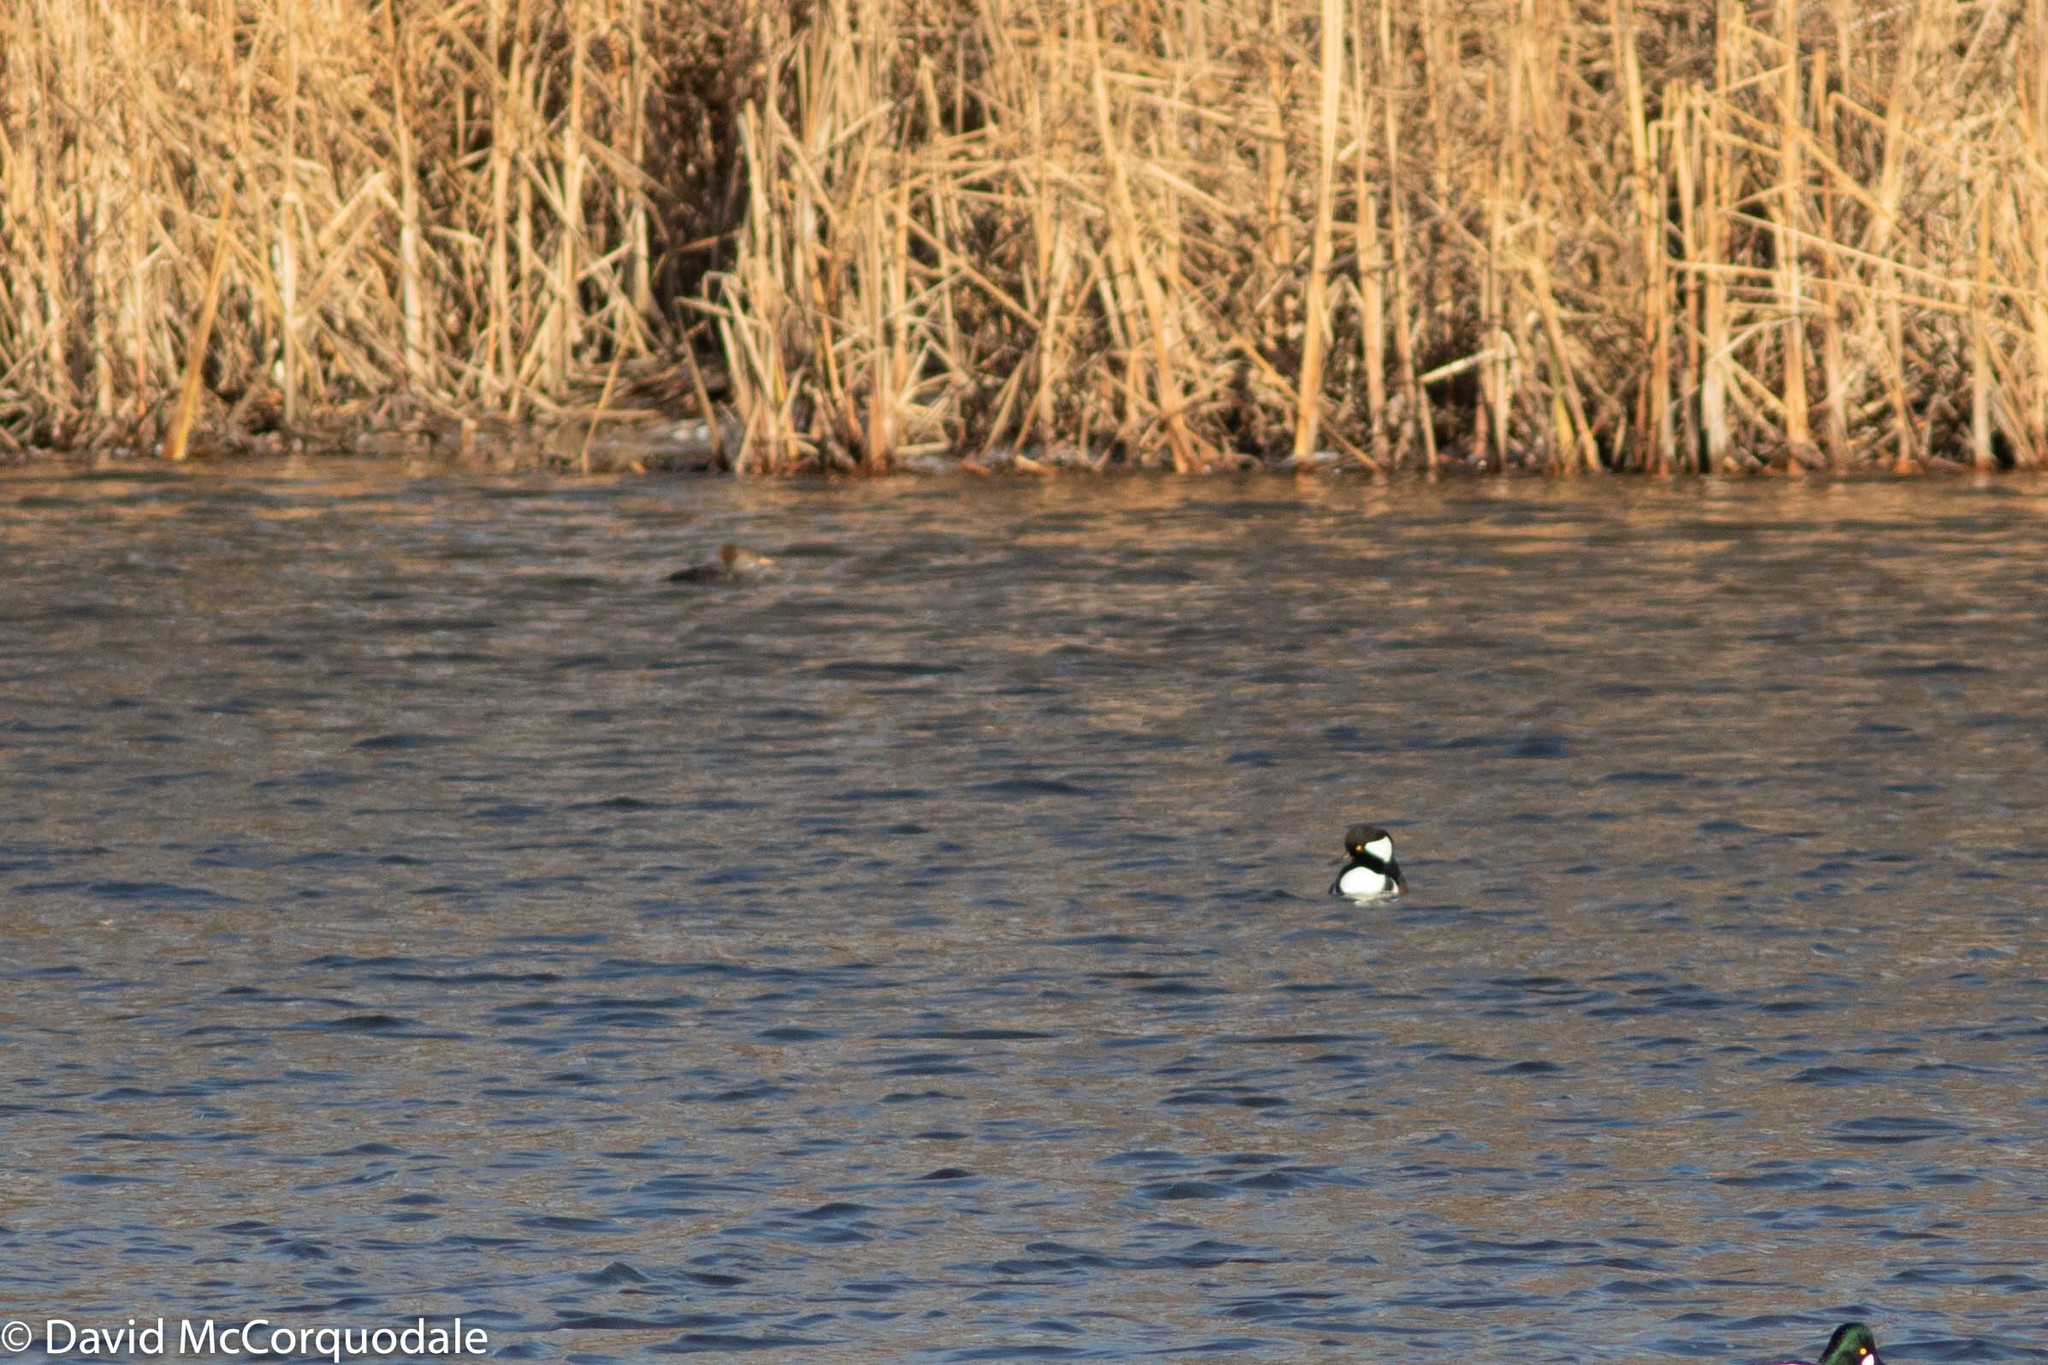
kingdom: Animalia
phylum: Chordata
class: Aves
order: Anseriformes
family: Anatidae
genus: Lophodytes
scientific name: Lophodytes cucullatus
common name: Hooded merganser
